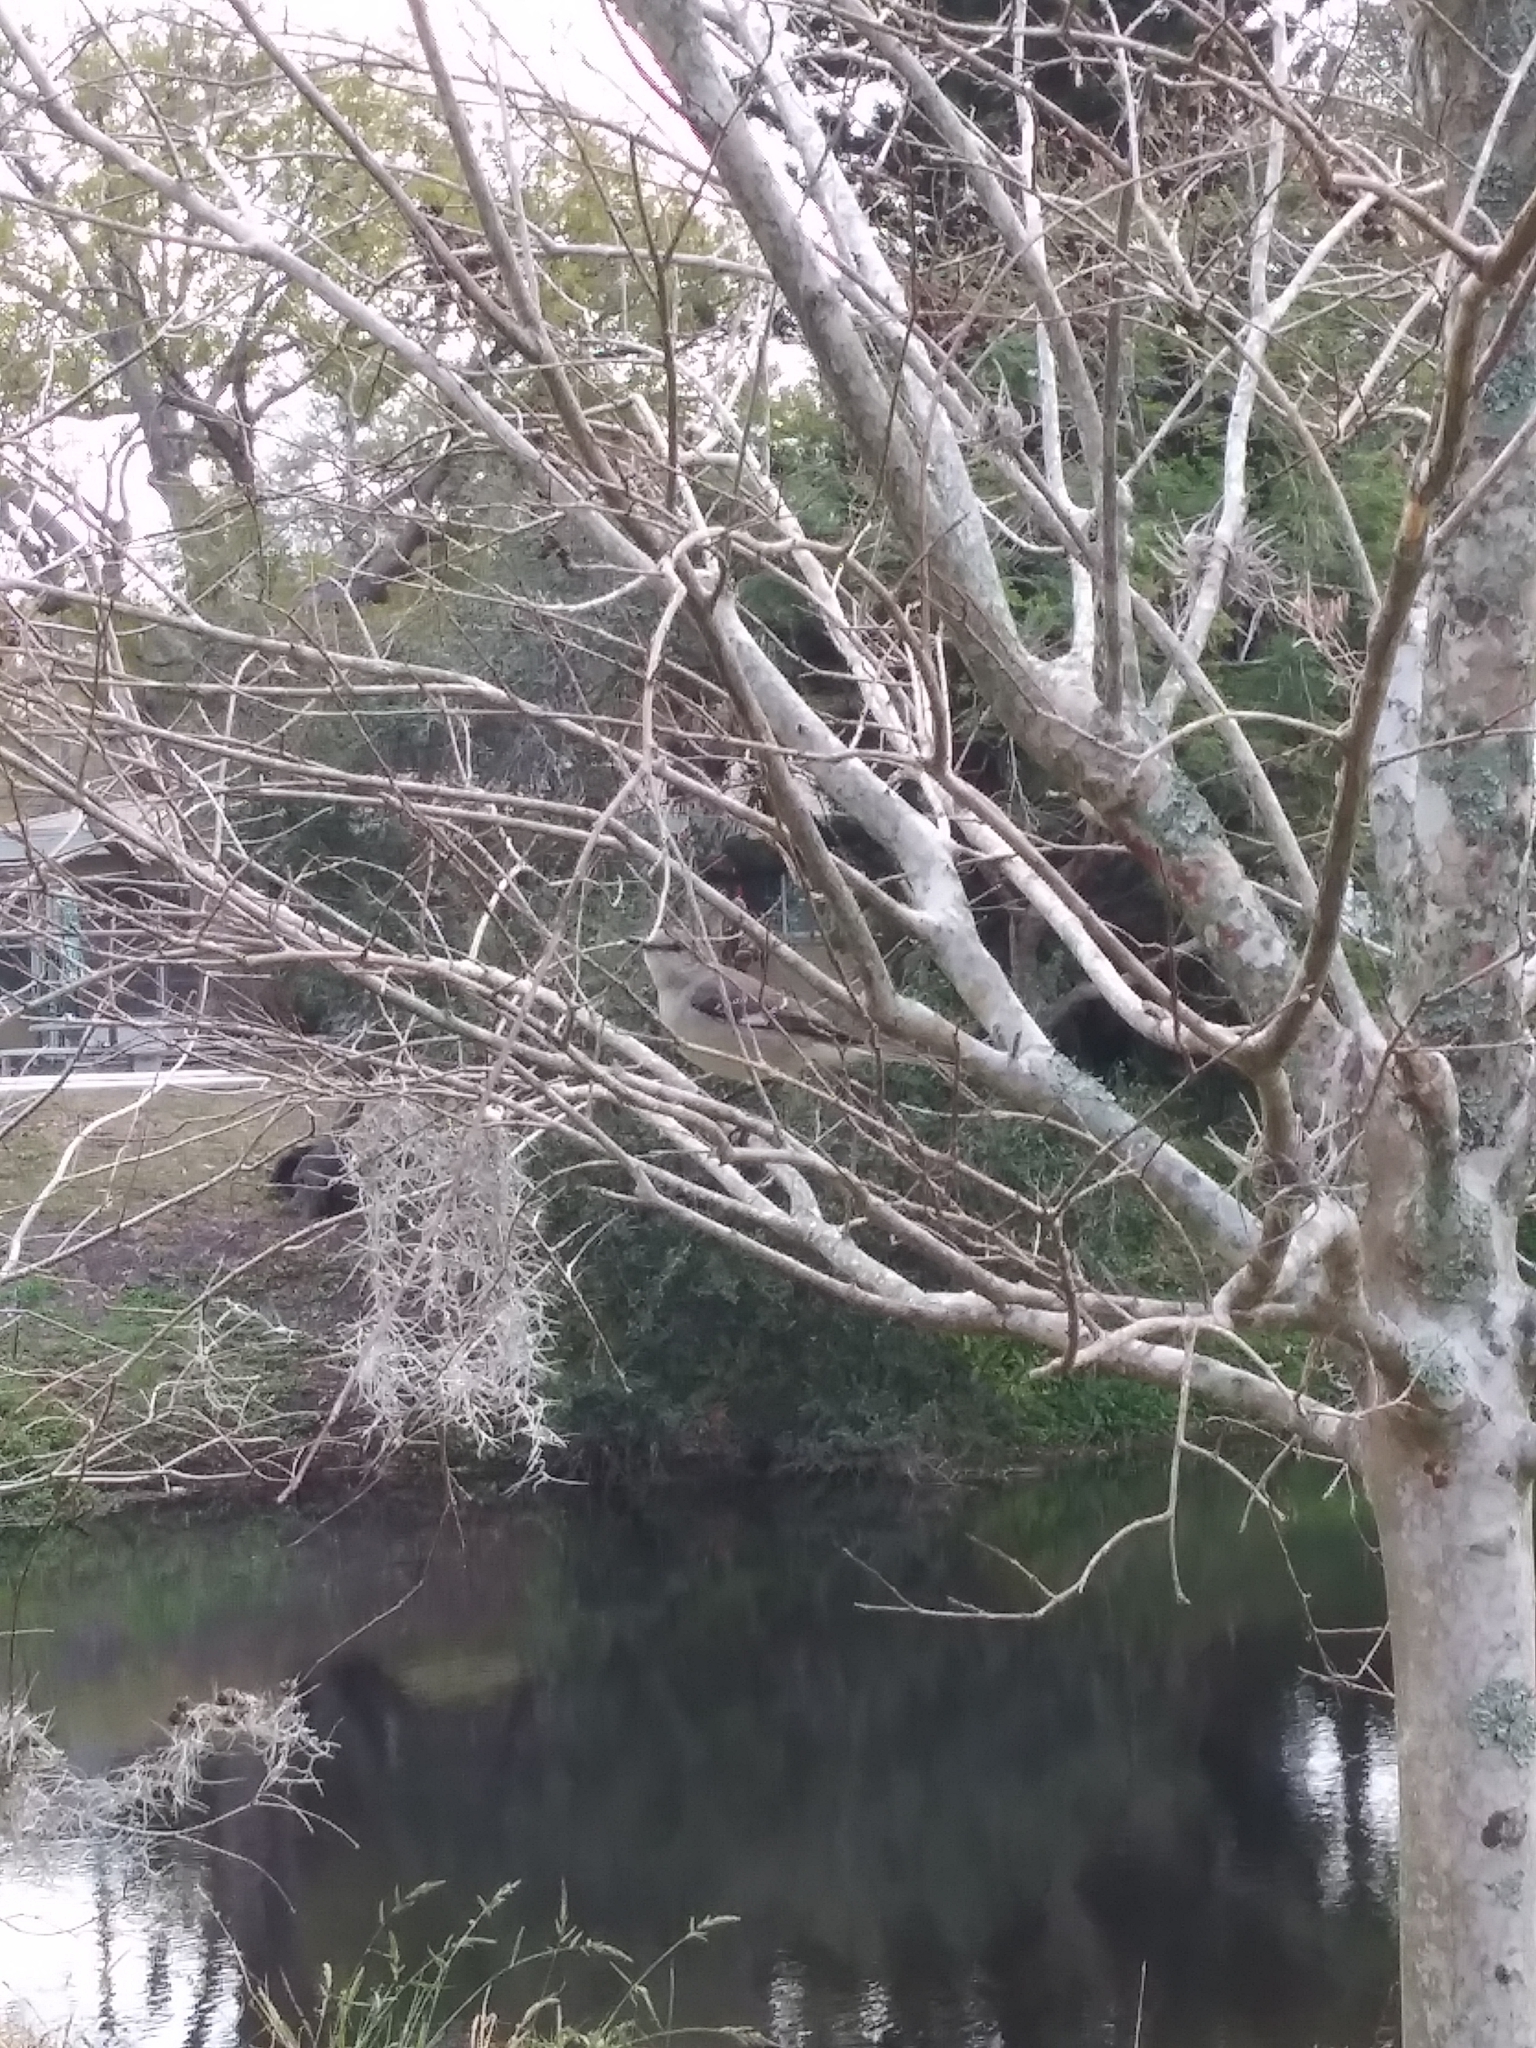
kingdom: Animalia
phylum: Chordata
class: Aves
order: Passeriformes
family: Mimidae
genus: Mimus
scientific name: Mimus polyglottos
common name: Northern mockingbird
